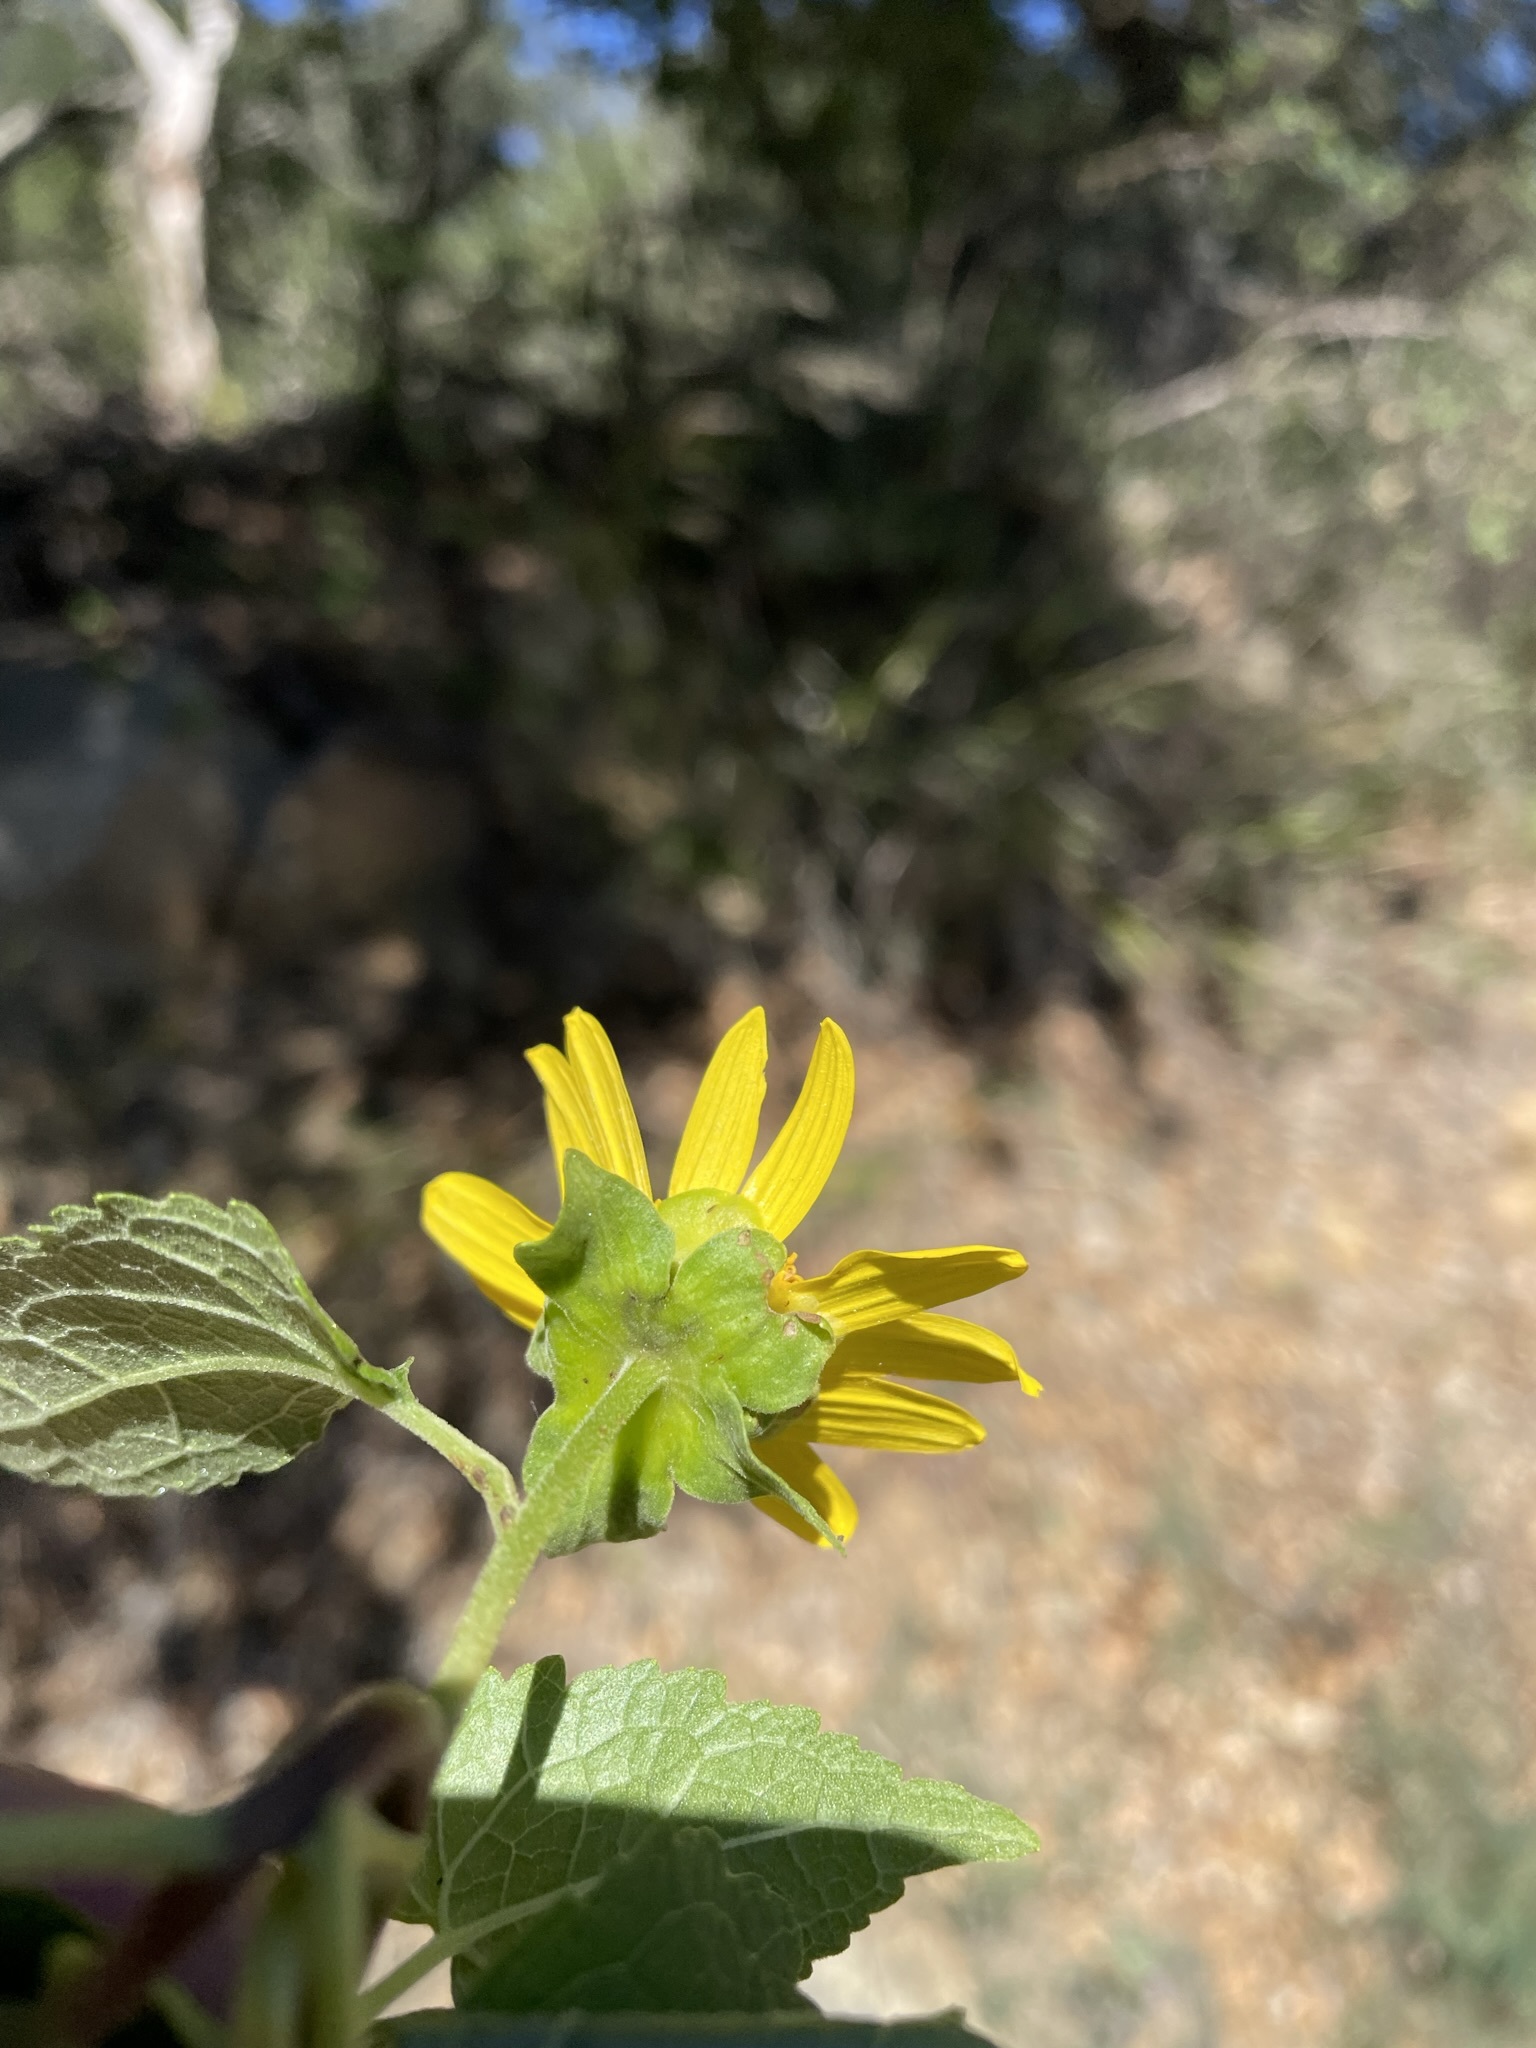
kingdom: Plantae
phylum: Tracheophyta
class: Magnoliopsida
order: Asterales
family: Asteraceae
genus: Venegasia
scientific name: Venegasia carpesioides
